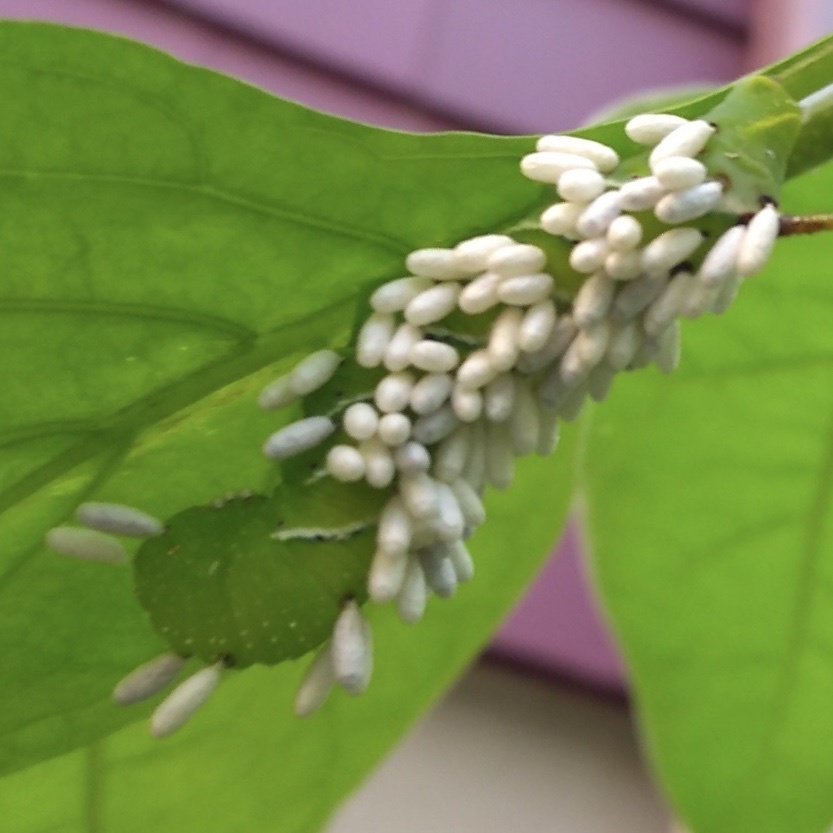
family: Polydnaviriformidae
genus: Bracoviriform
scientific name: Bracoviriform congregatae
